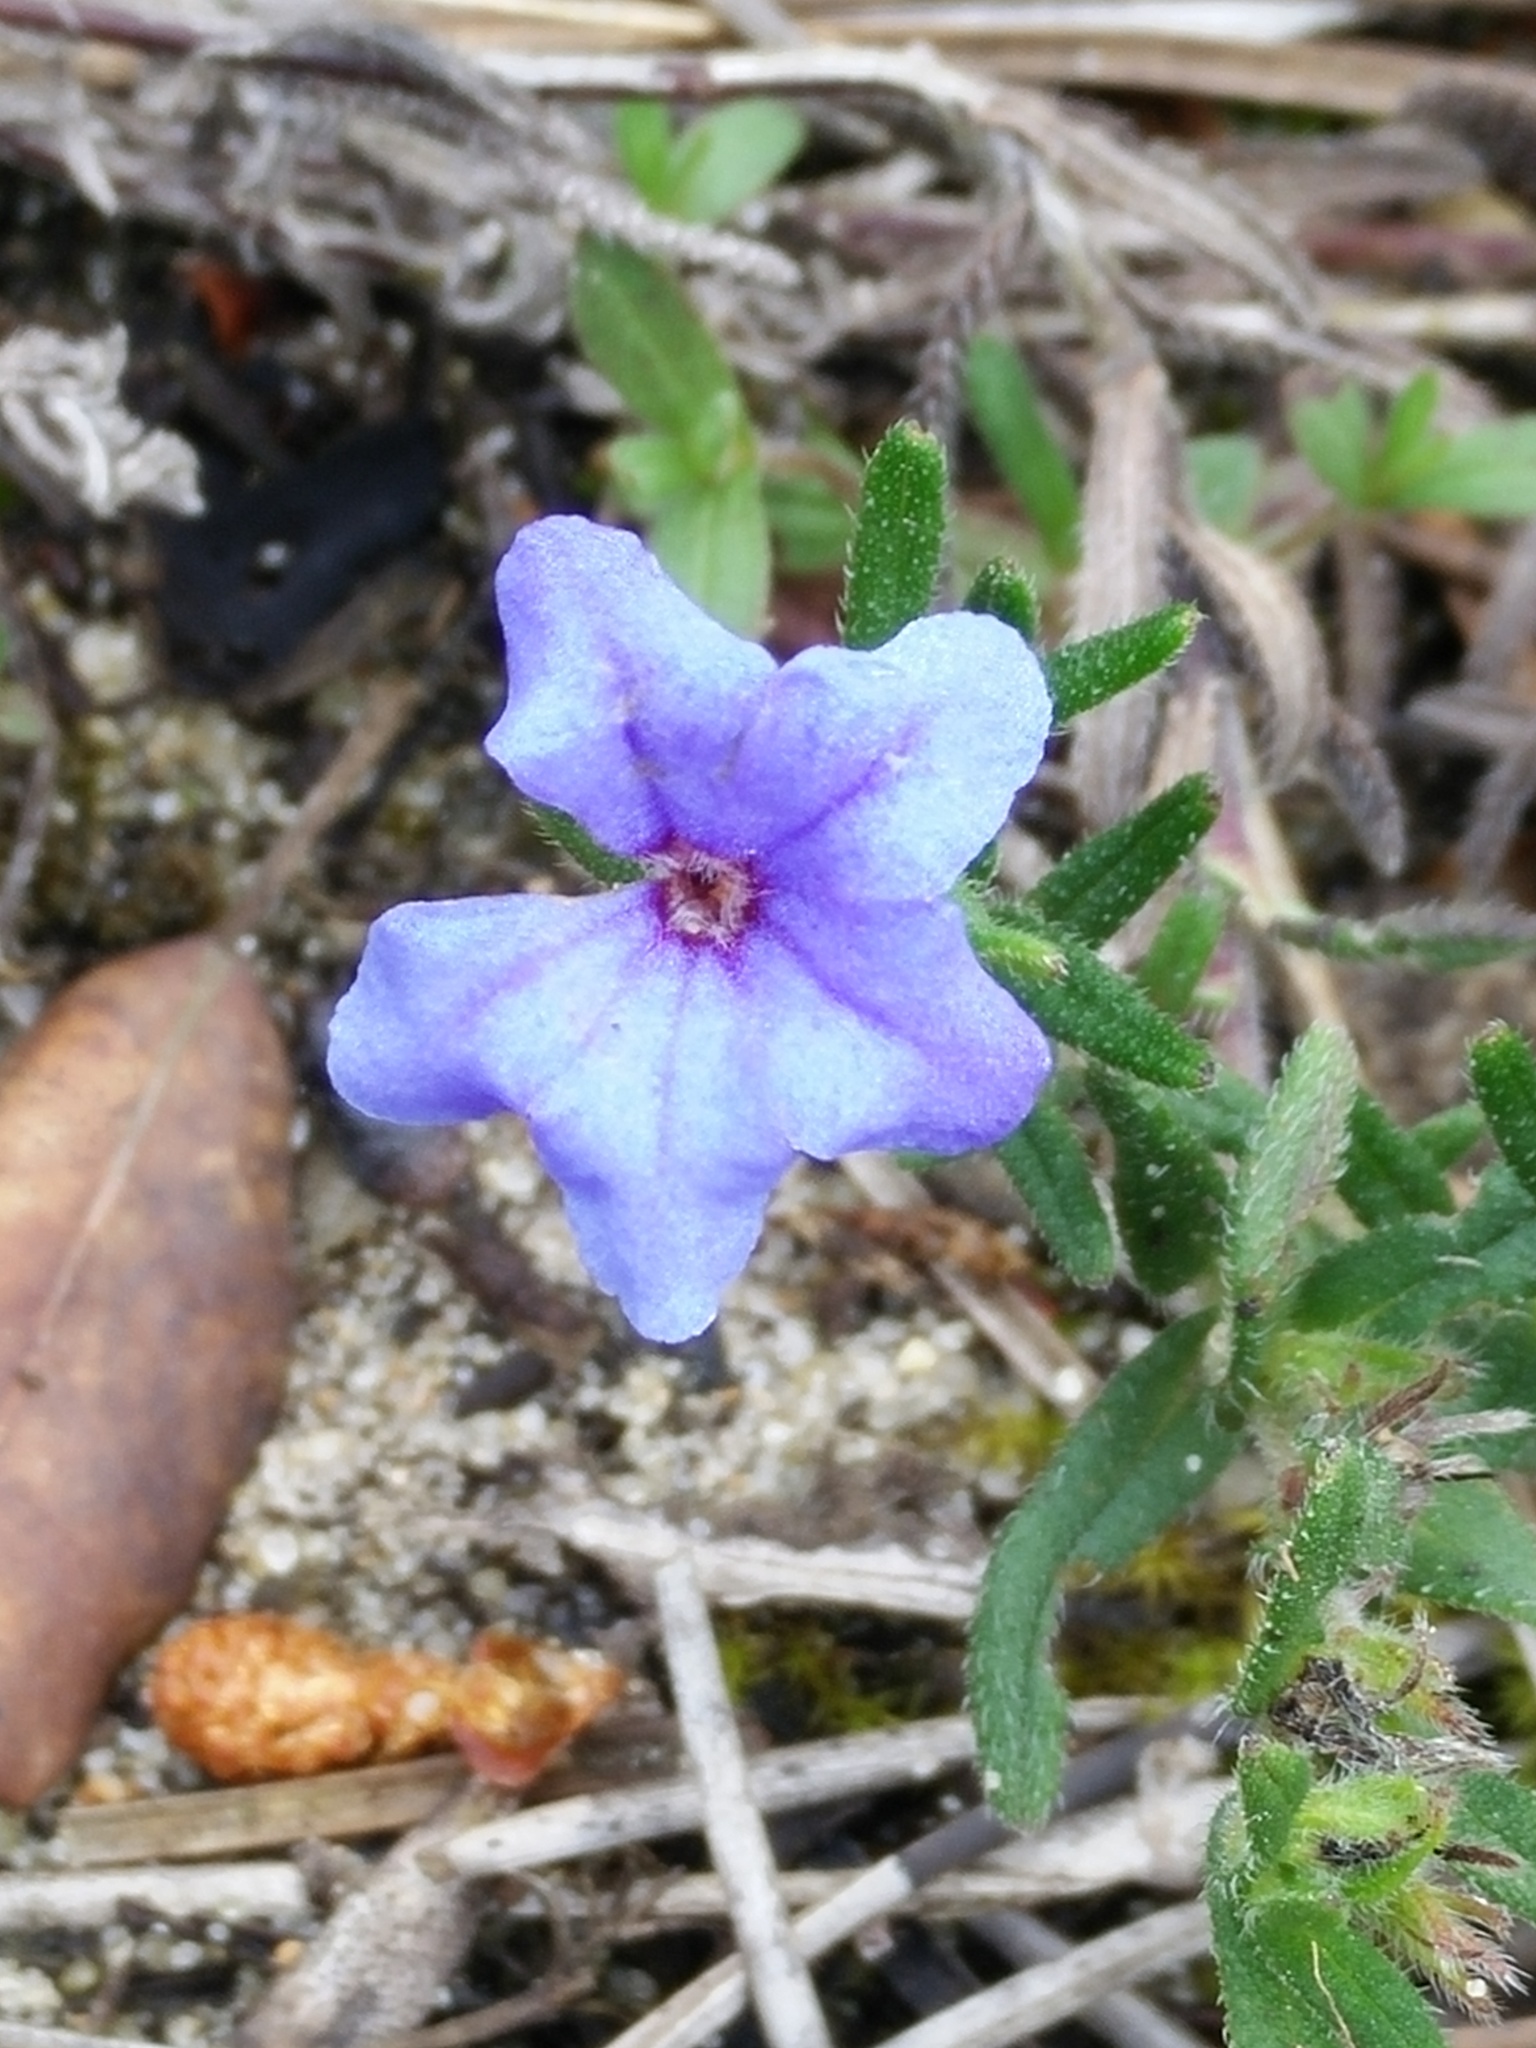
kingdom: Plantae
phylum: Tracheophyta
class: Magnoliopsida
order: Boraginales
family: Boraginaceae
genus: Glandora
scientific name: Glandora prostrata
